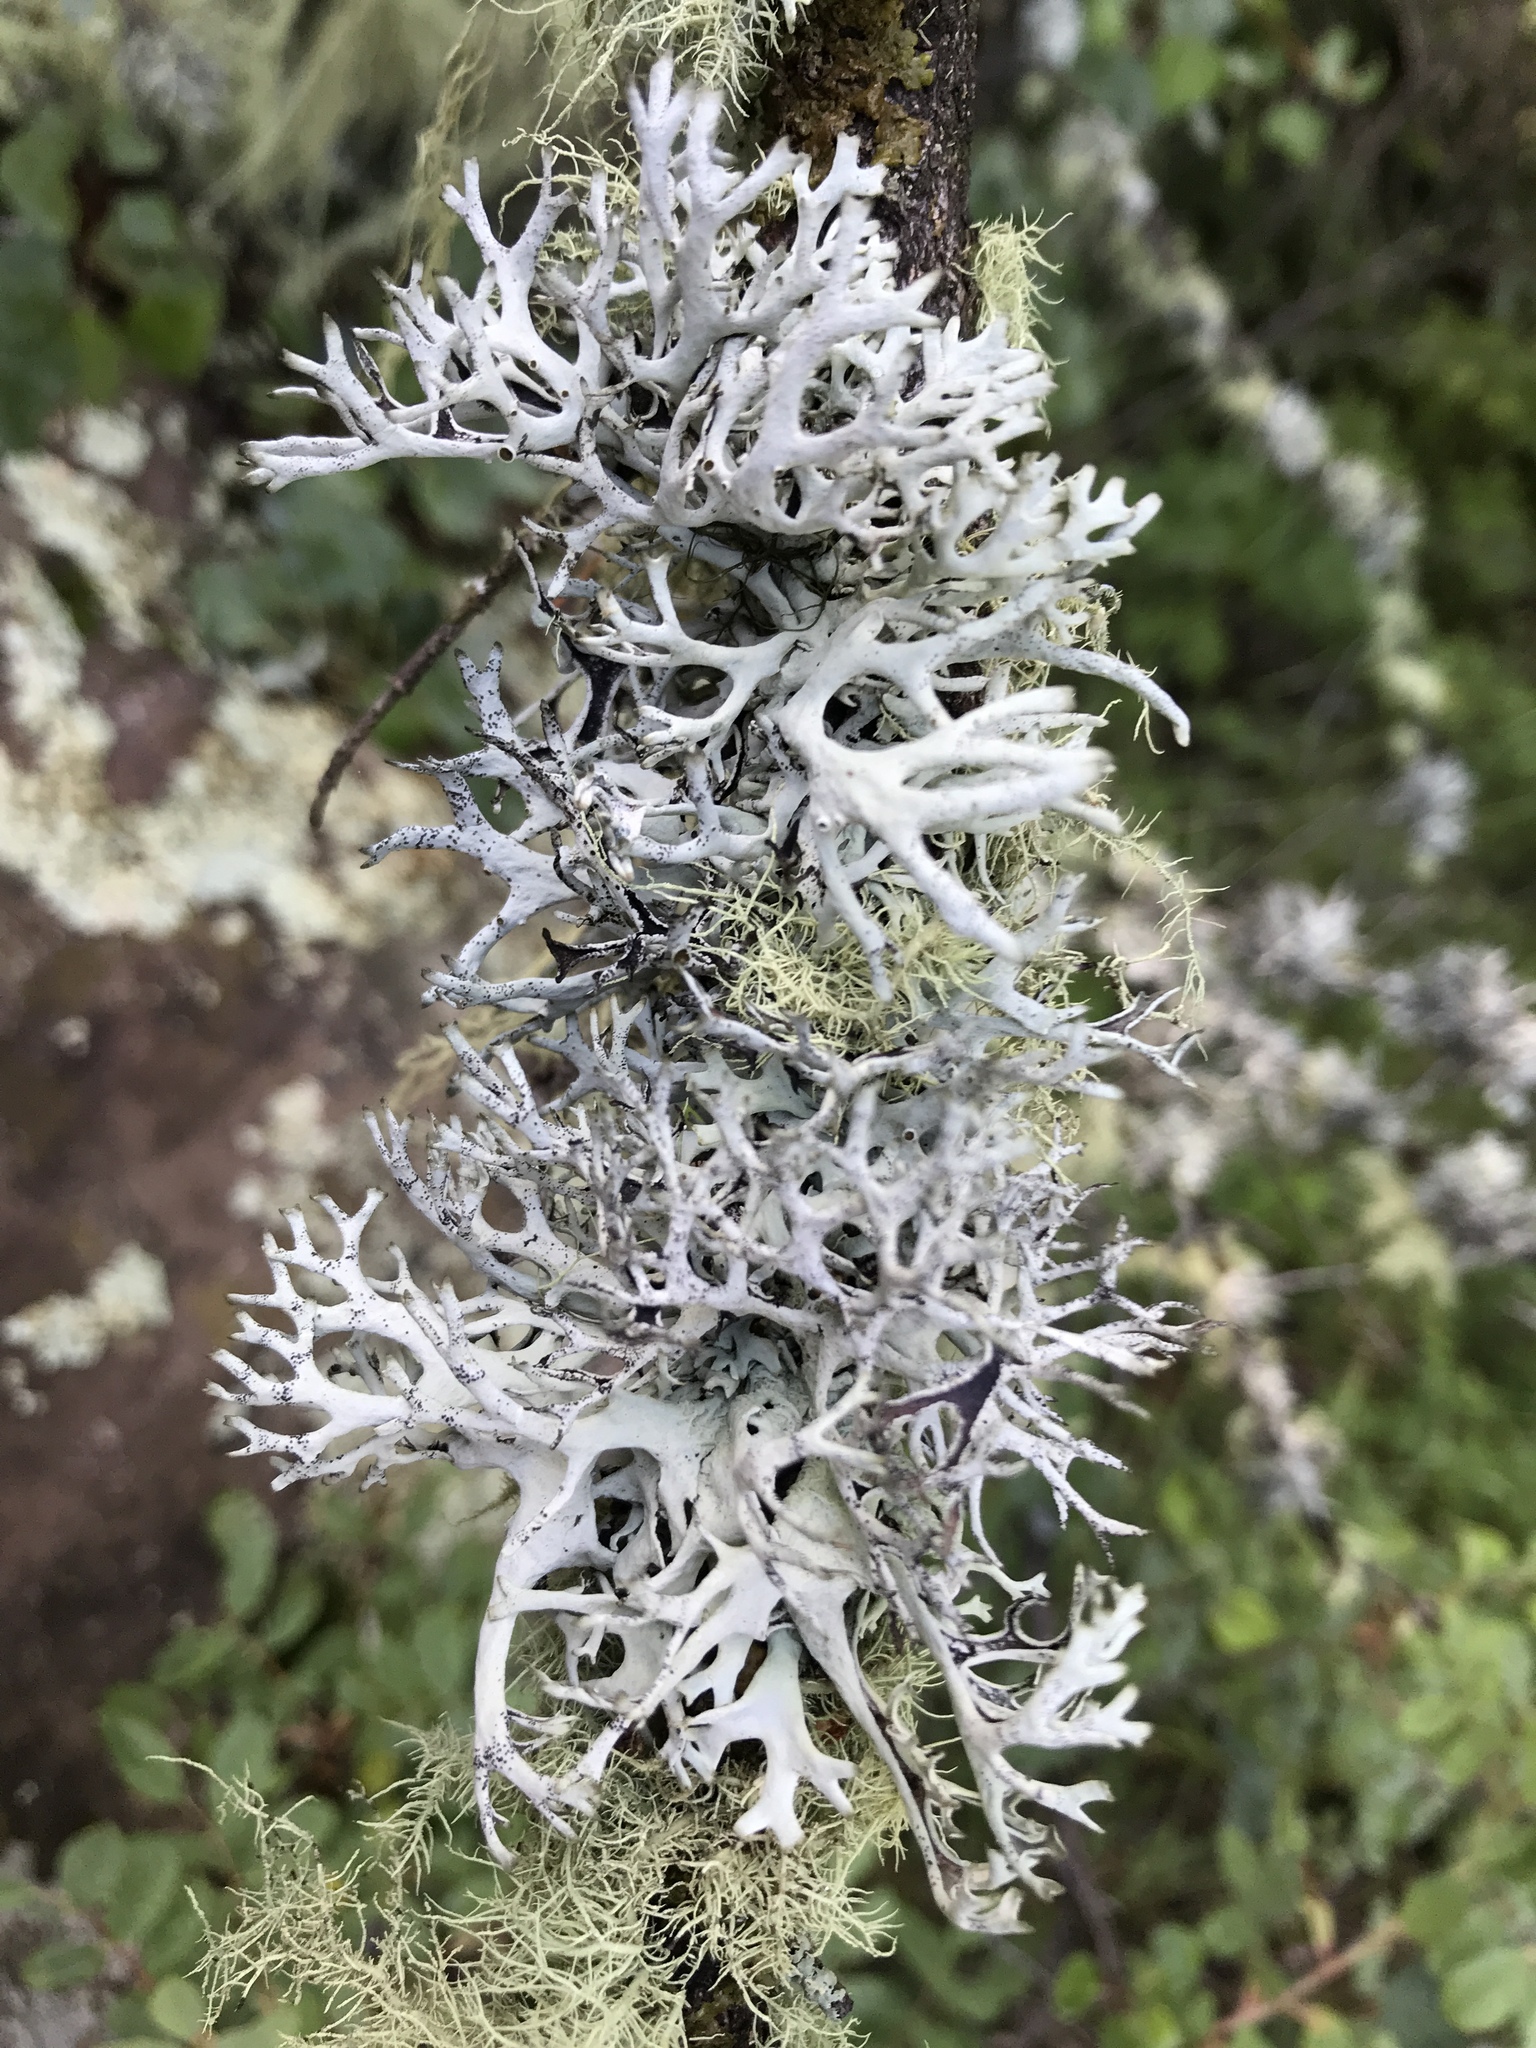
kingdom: Fungi
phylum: Ascomycota
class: Lecanoromycetes
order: Lecanorales
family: Parmeliaceae
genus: Pseudevernia
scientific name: Pseudevernia intensa
